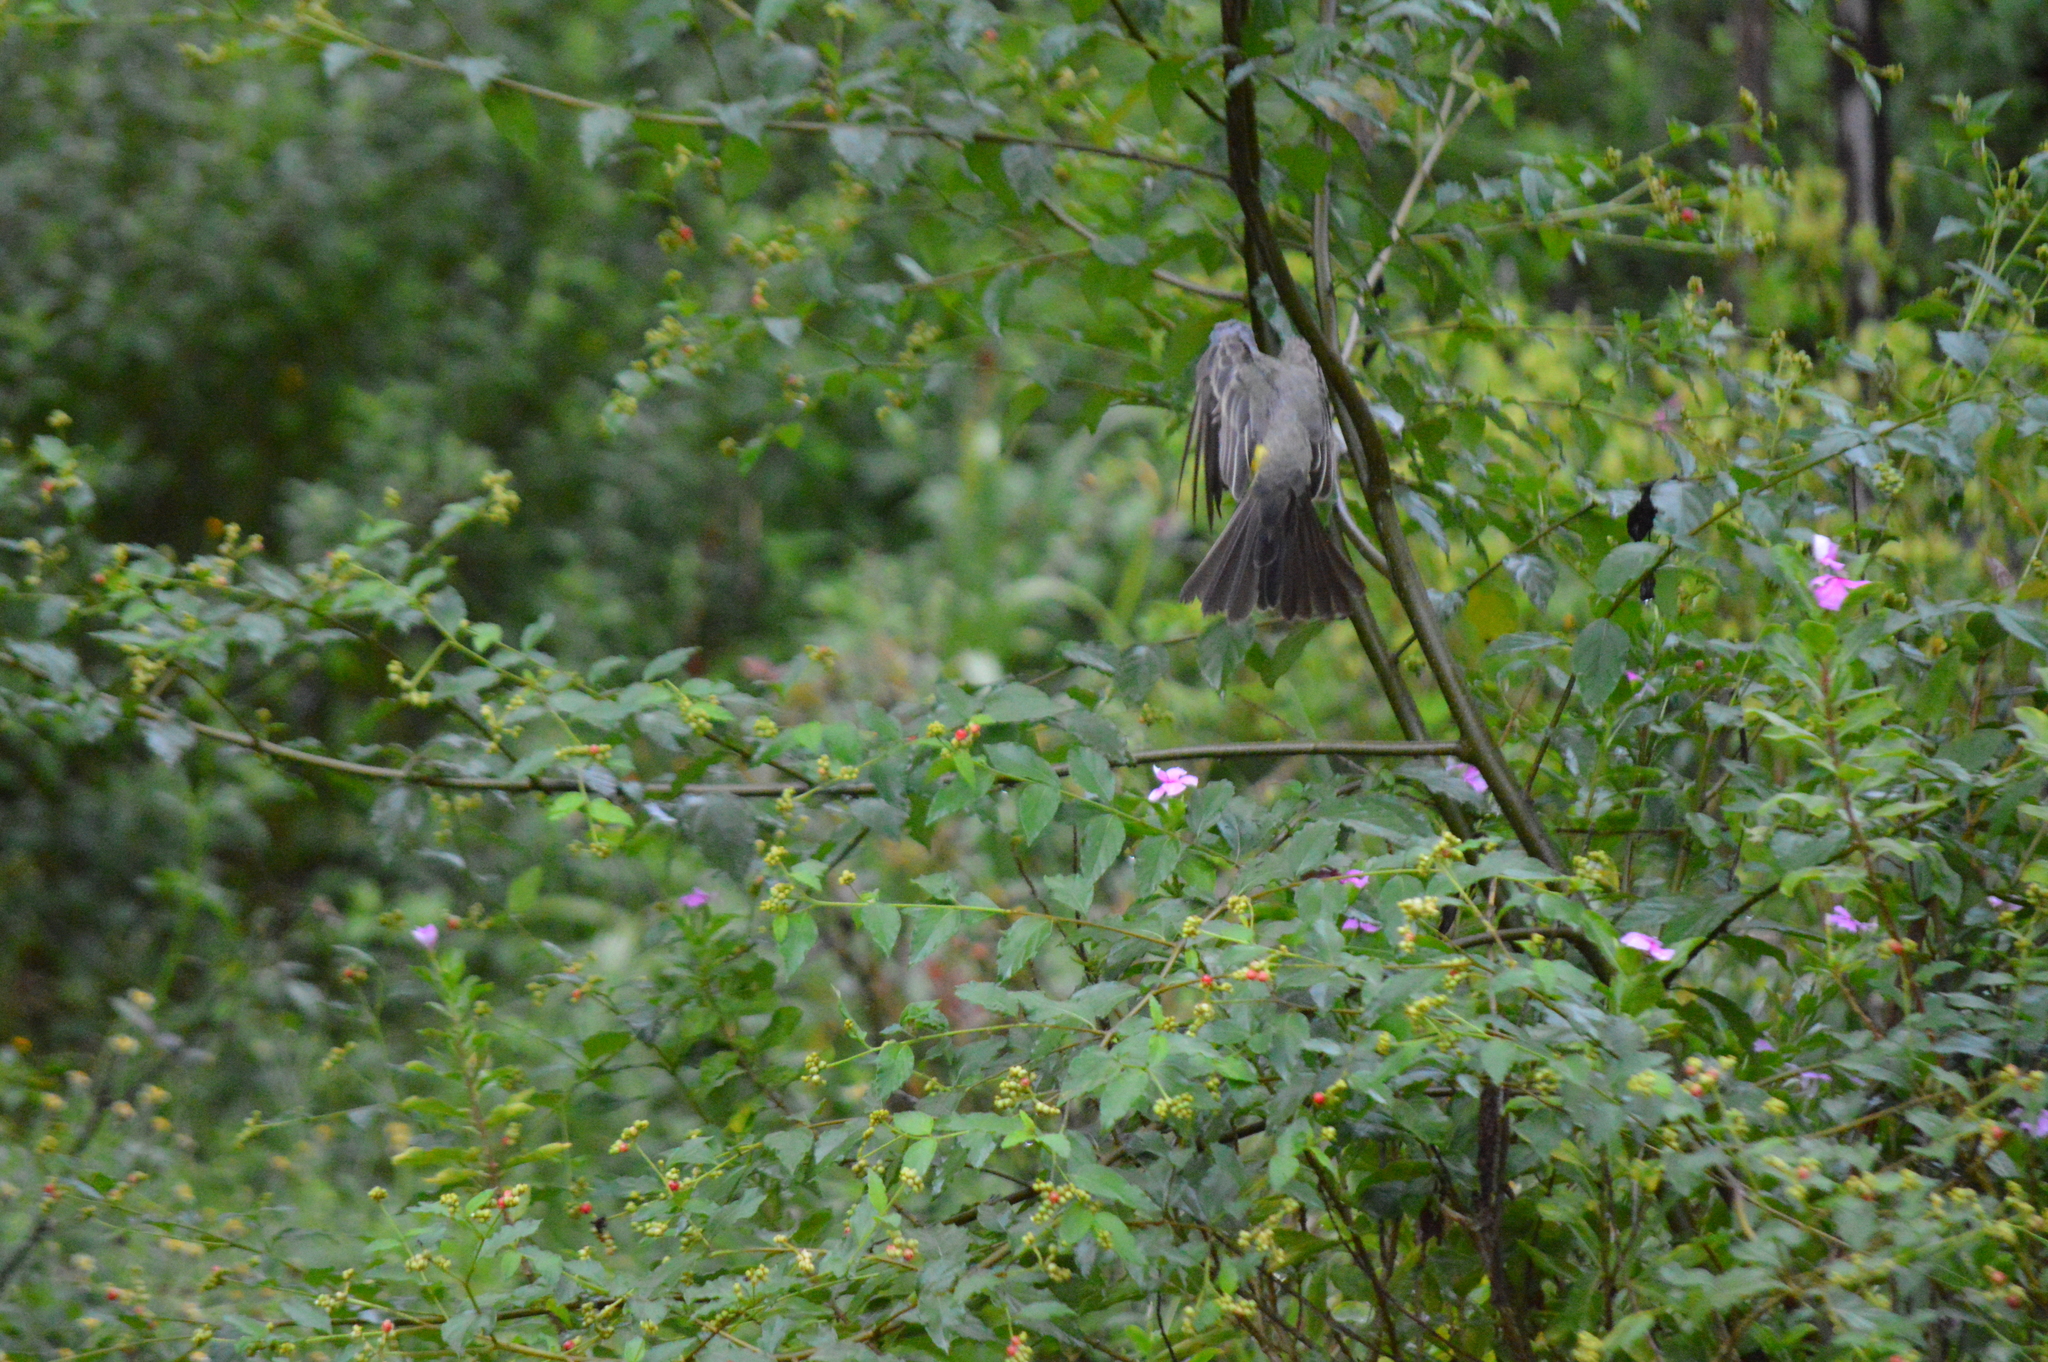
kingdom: Animalia
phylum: Chordata
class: Aves
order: Passeriformes
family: Tyrannidae
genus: Tyrannus
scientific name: Tyrannus melancholicus
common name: Tropical kingbird
